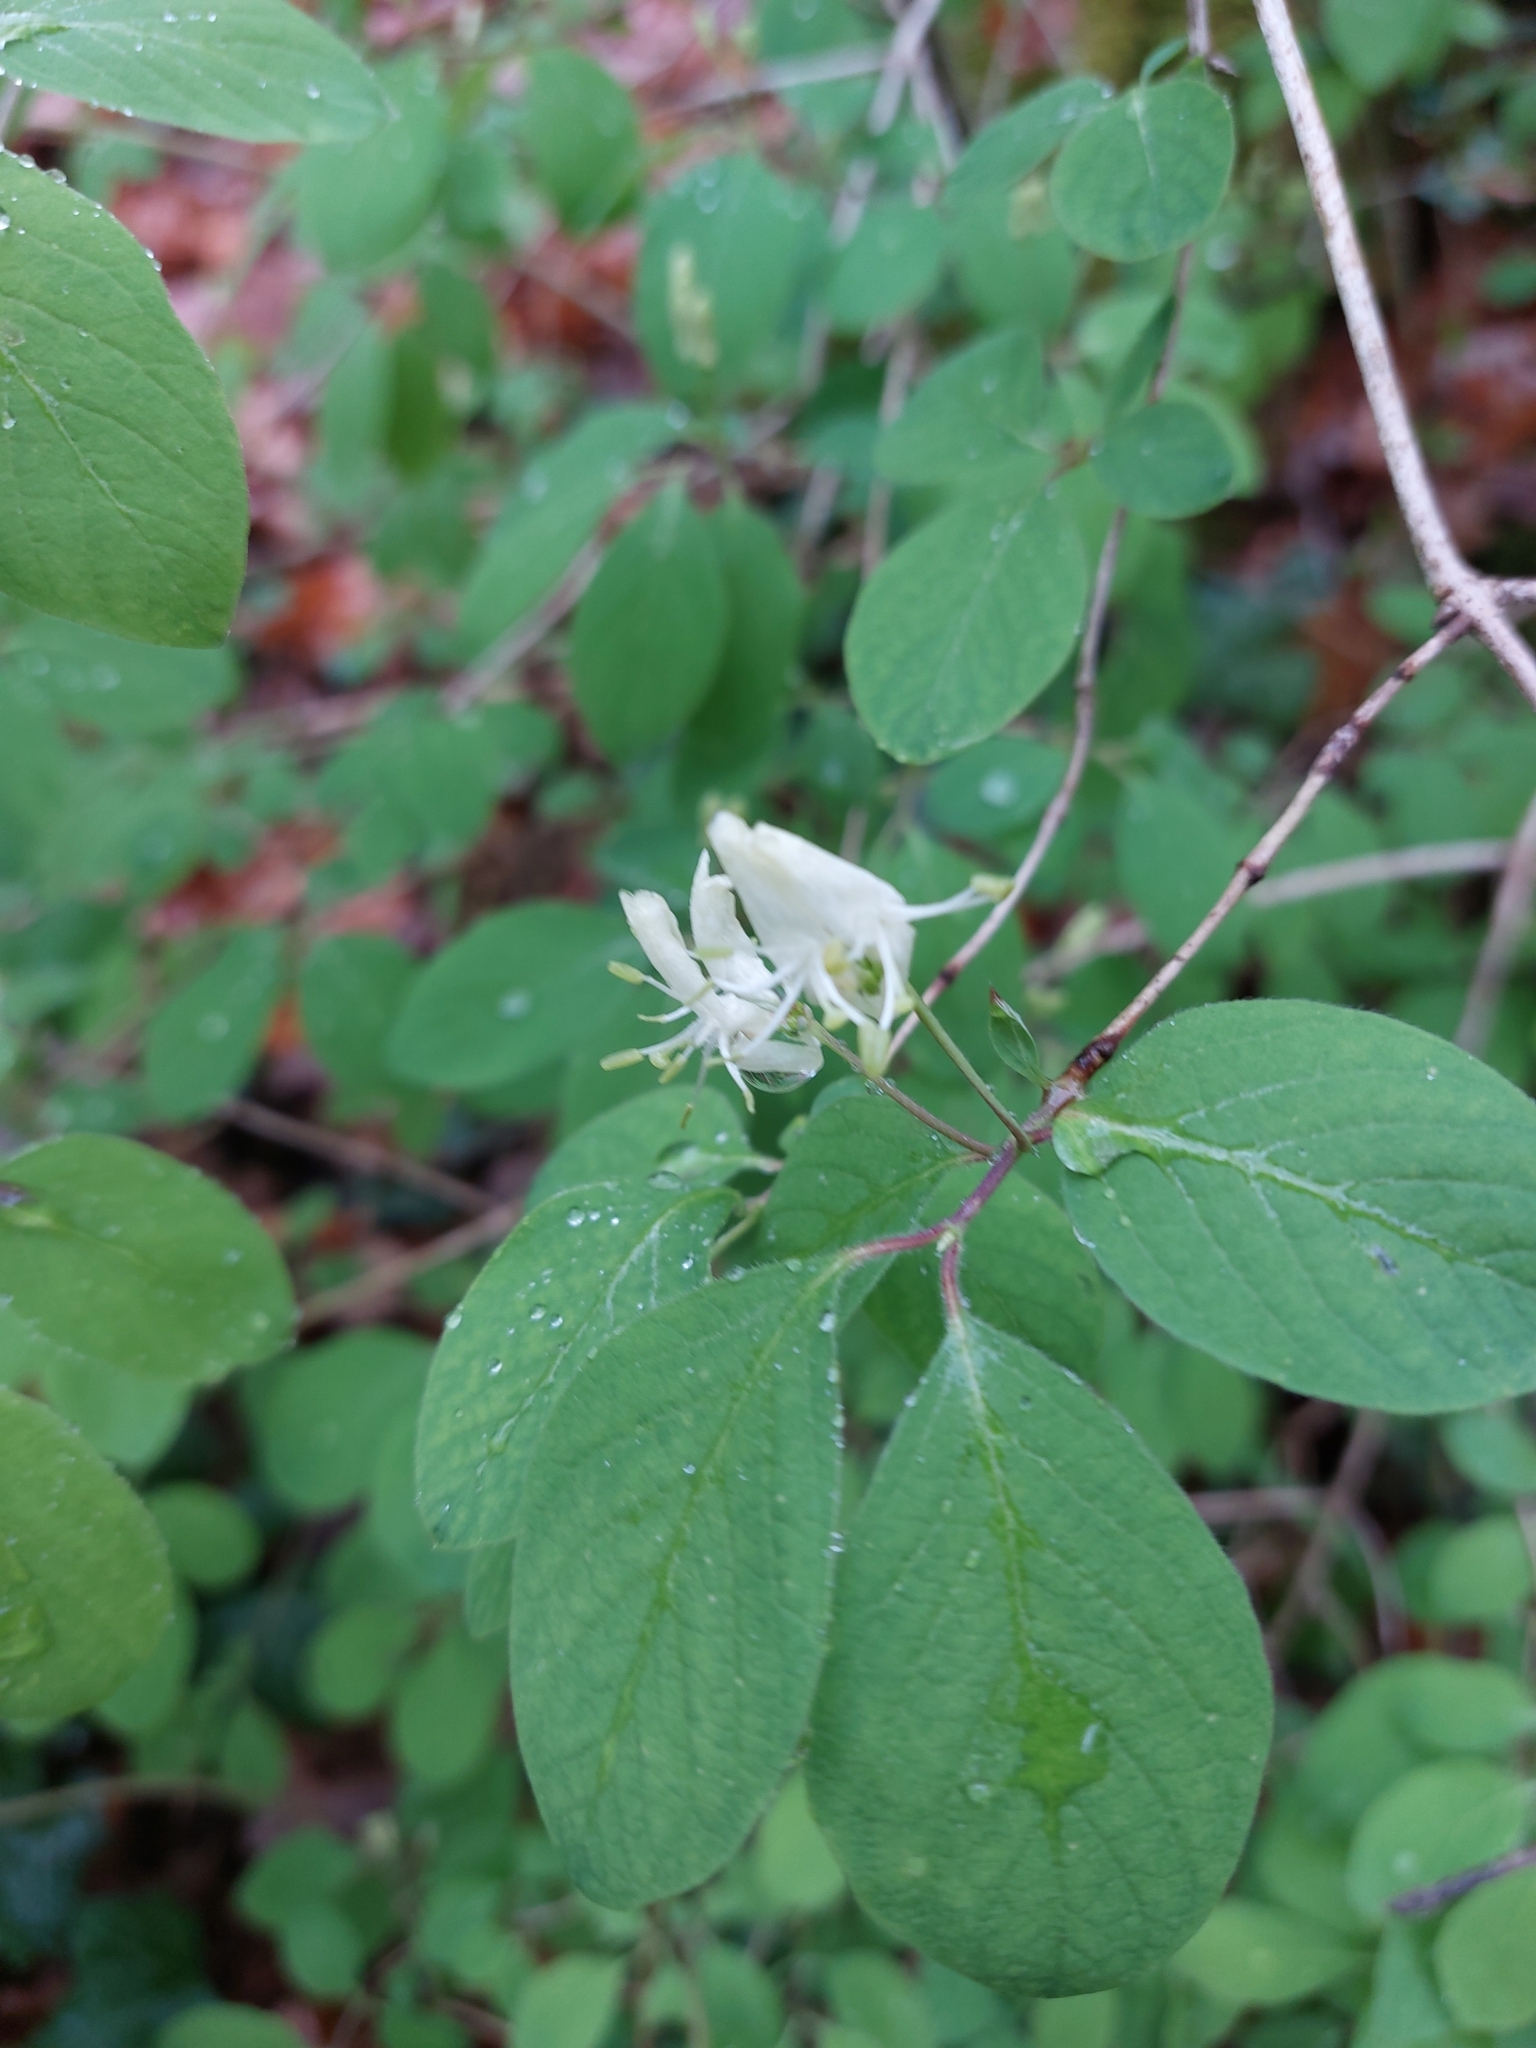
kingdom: Plantae
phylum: Tracheophyta
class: Magnoliopsida
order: Dipsacales
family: Caprifoliaceae
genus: Lonicera
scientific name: Lonicera xylosteum
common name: Fly honeysuckle
